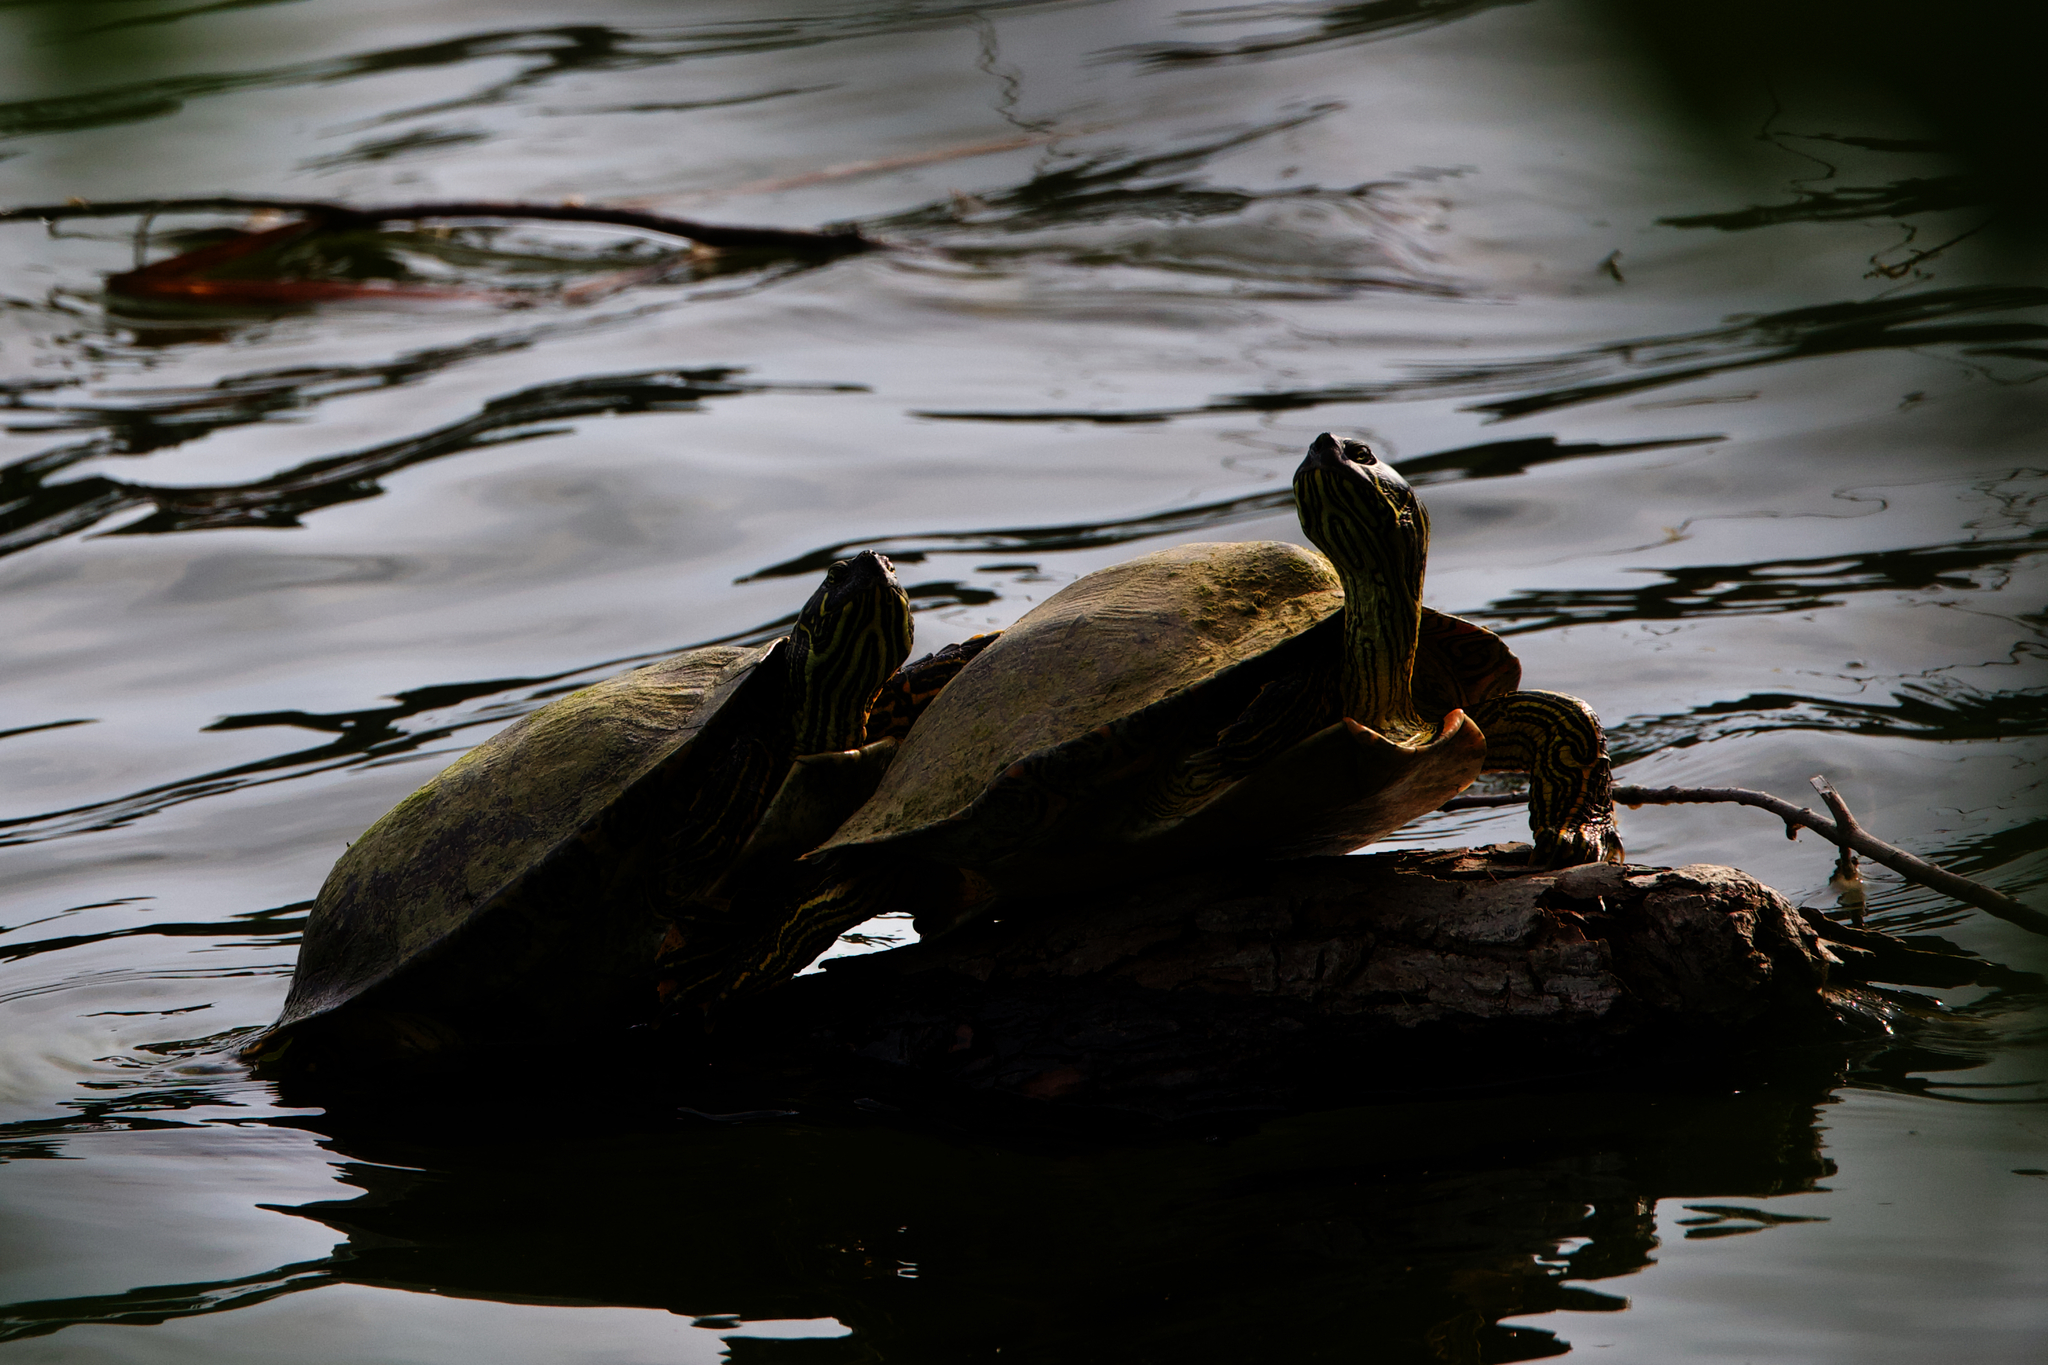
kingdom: Animalia
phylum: Chordata
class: Testudines
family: Emydidae
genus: Pseudemys
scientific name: Pseudemys texana
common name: Texas river cooter
